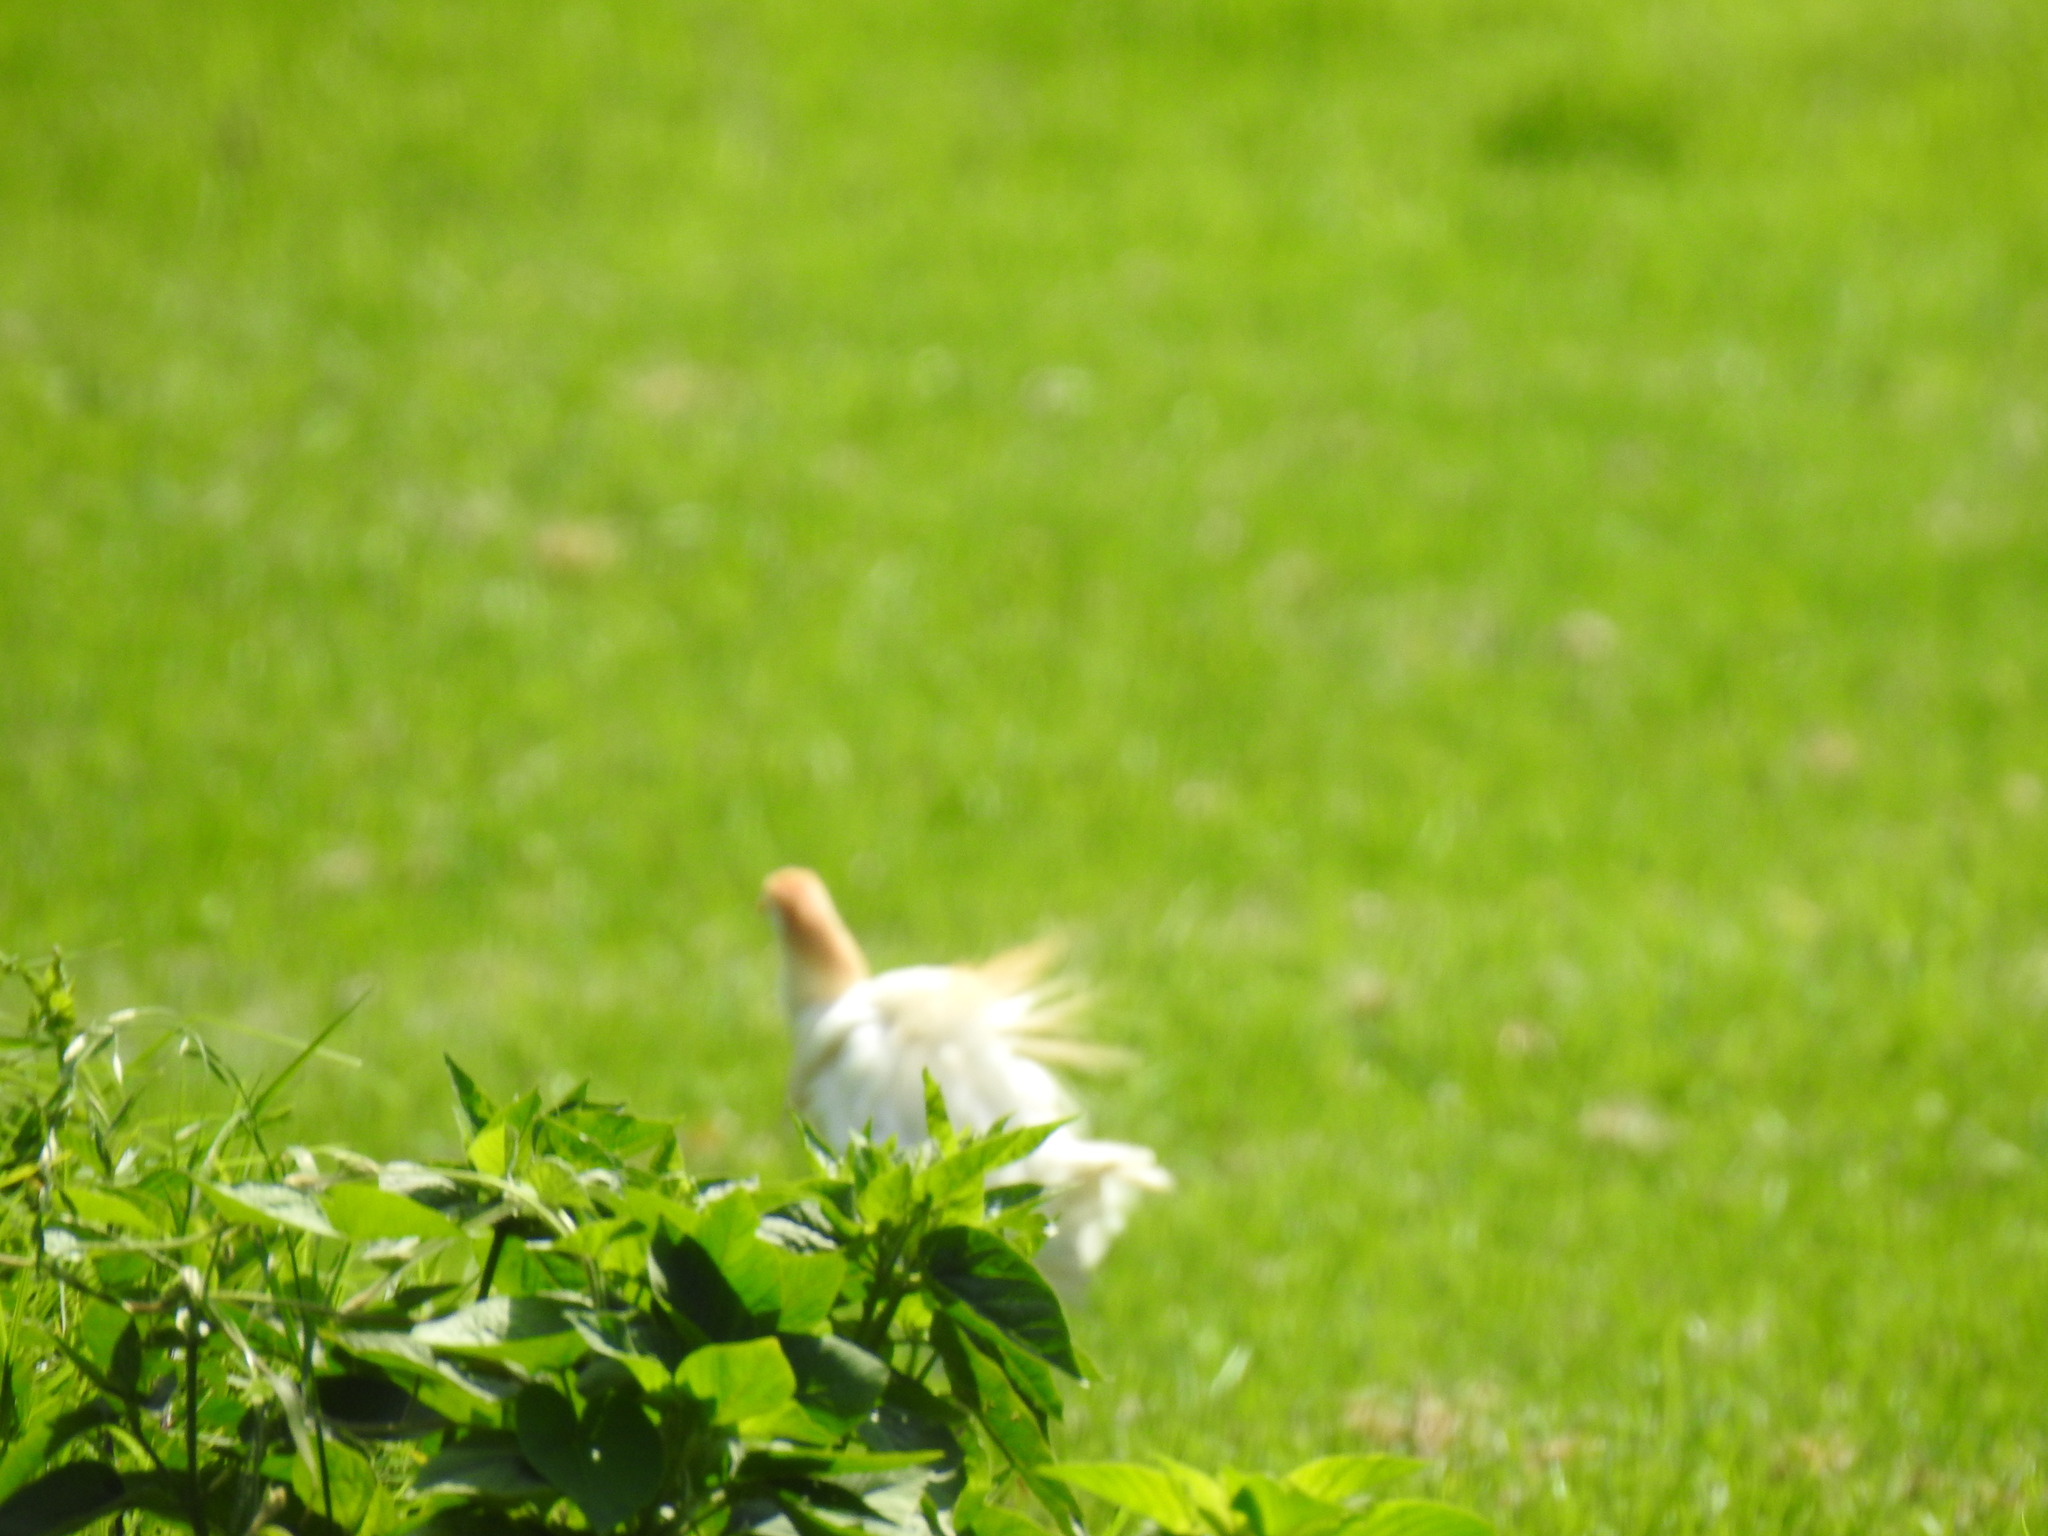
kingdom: Animalia
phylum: Chordata
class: Aves
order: Pelecaniformes
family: Ardeidae
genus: Bubulcus
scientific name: Bubulcus ibis
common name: Cattle egret
